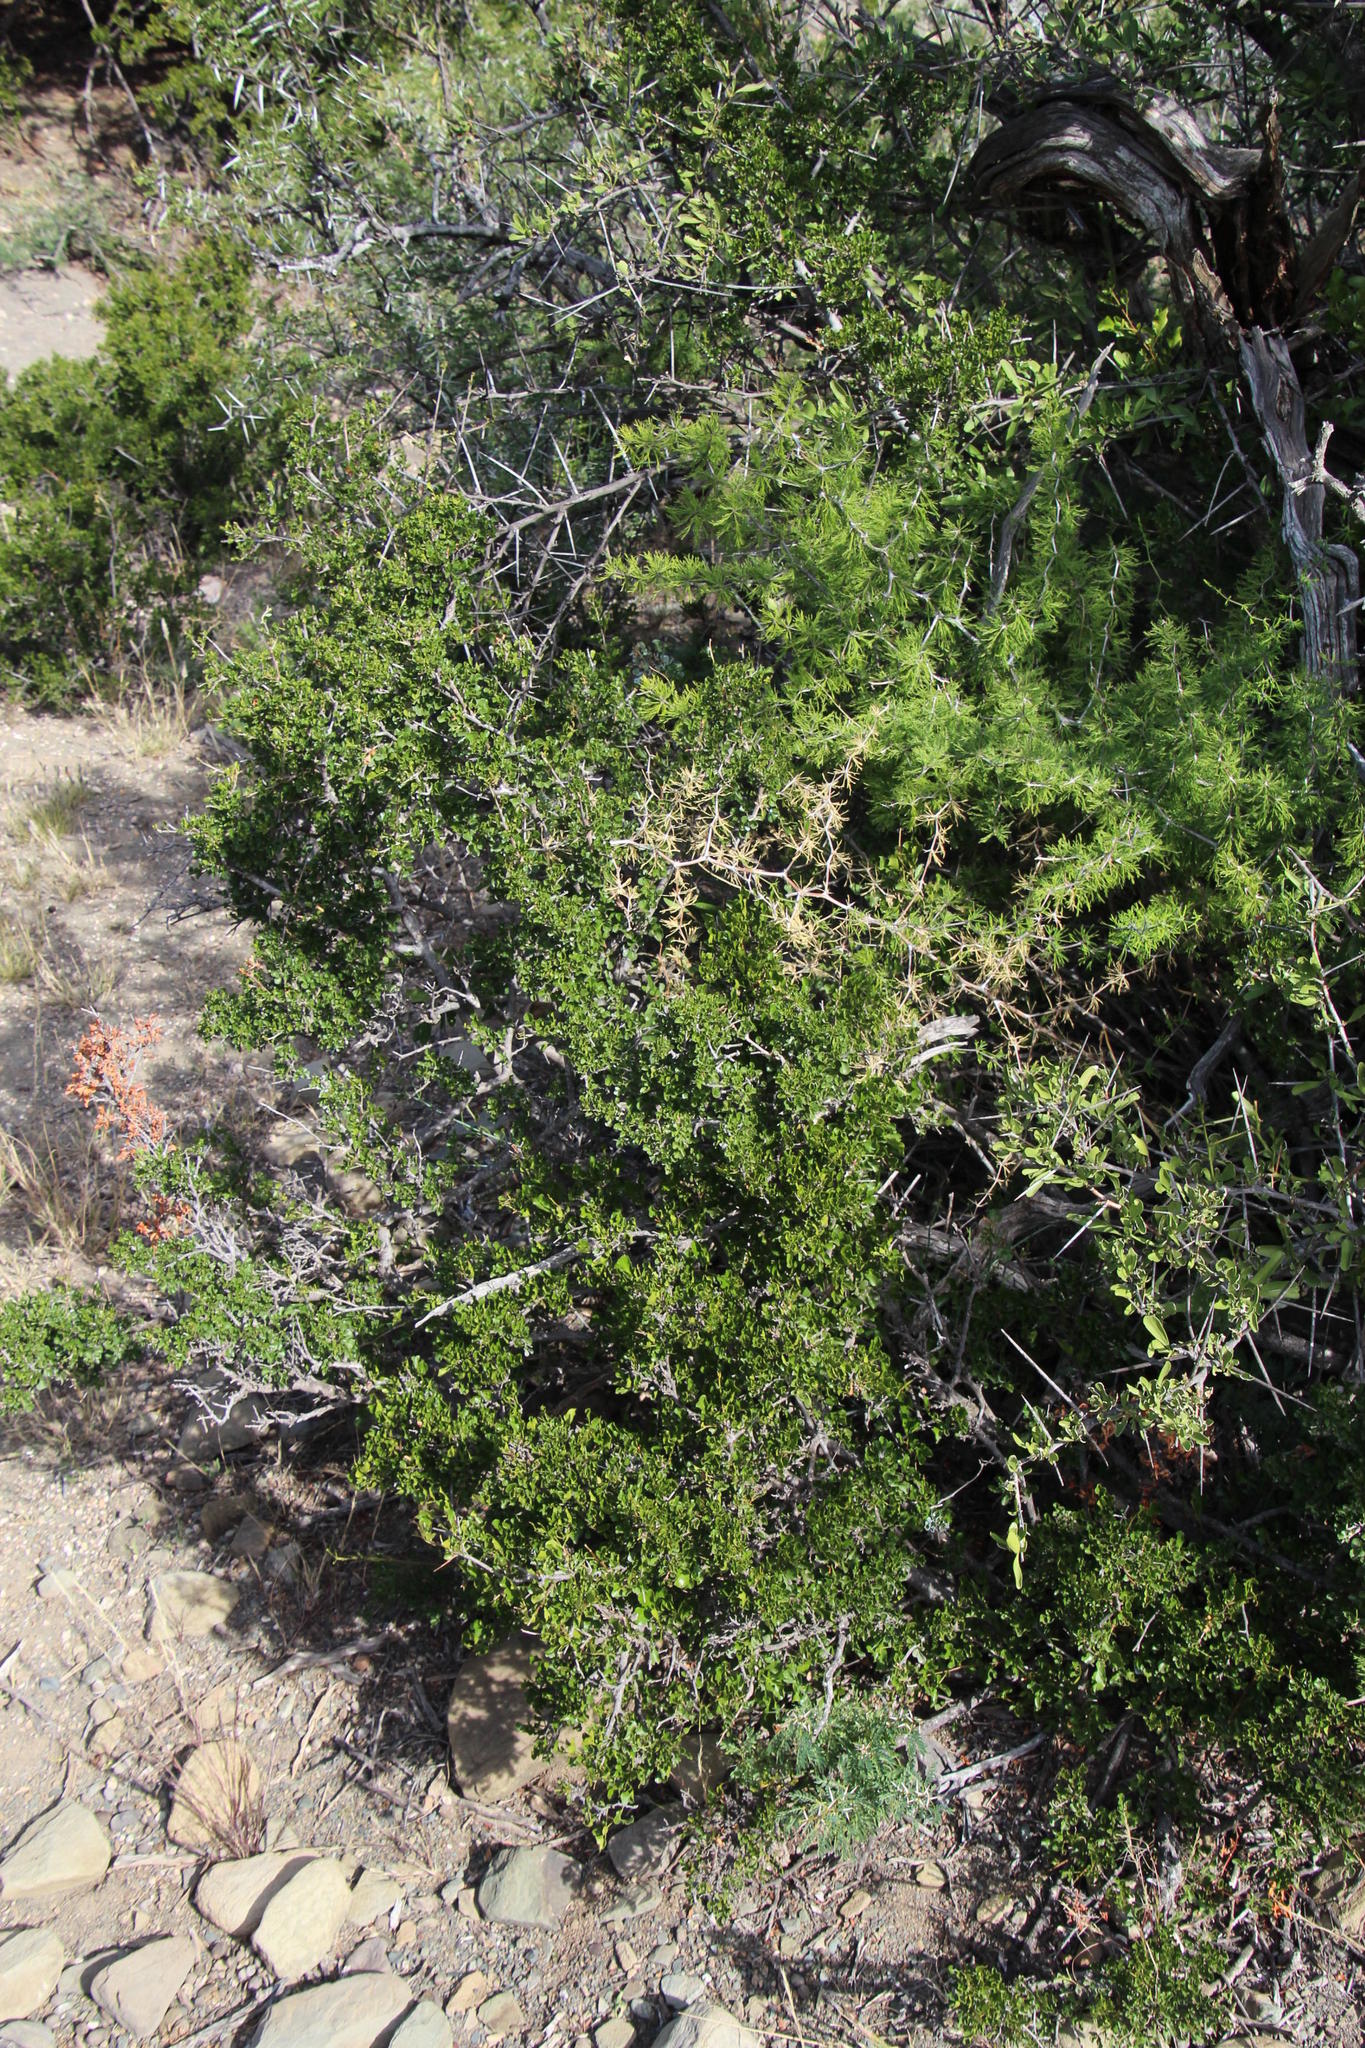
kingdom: Plantae
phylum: Tracheophyta
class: Magnoliopsida
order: Sapindales
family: Anacardiaceae
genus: Searsia
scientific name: Searsia burchellii
